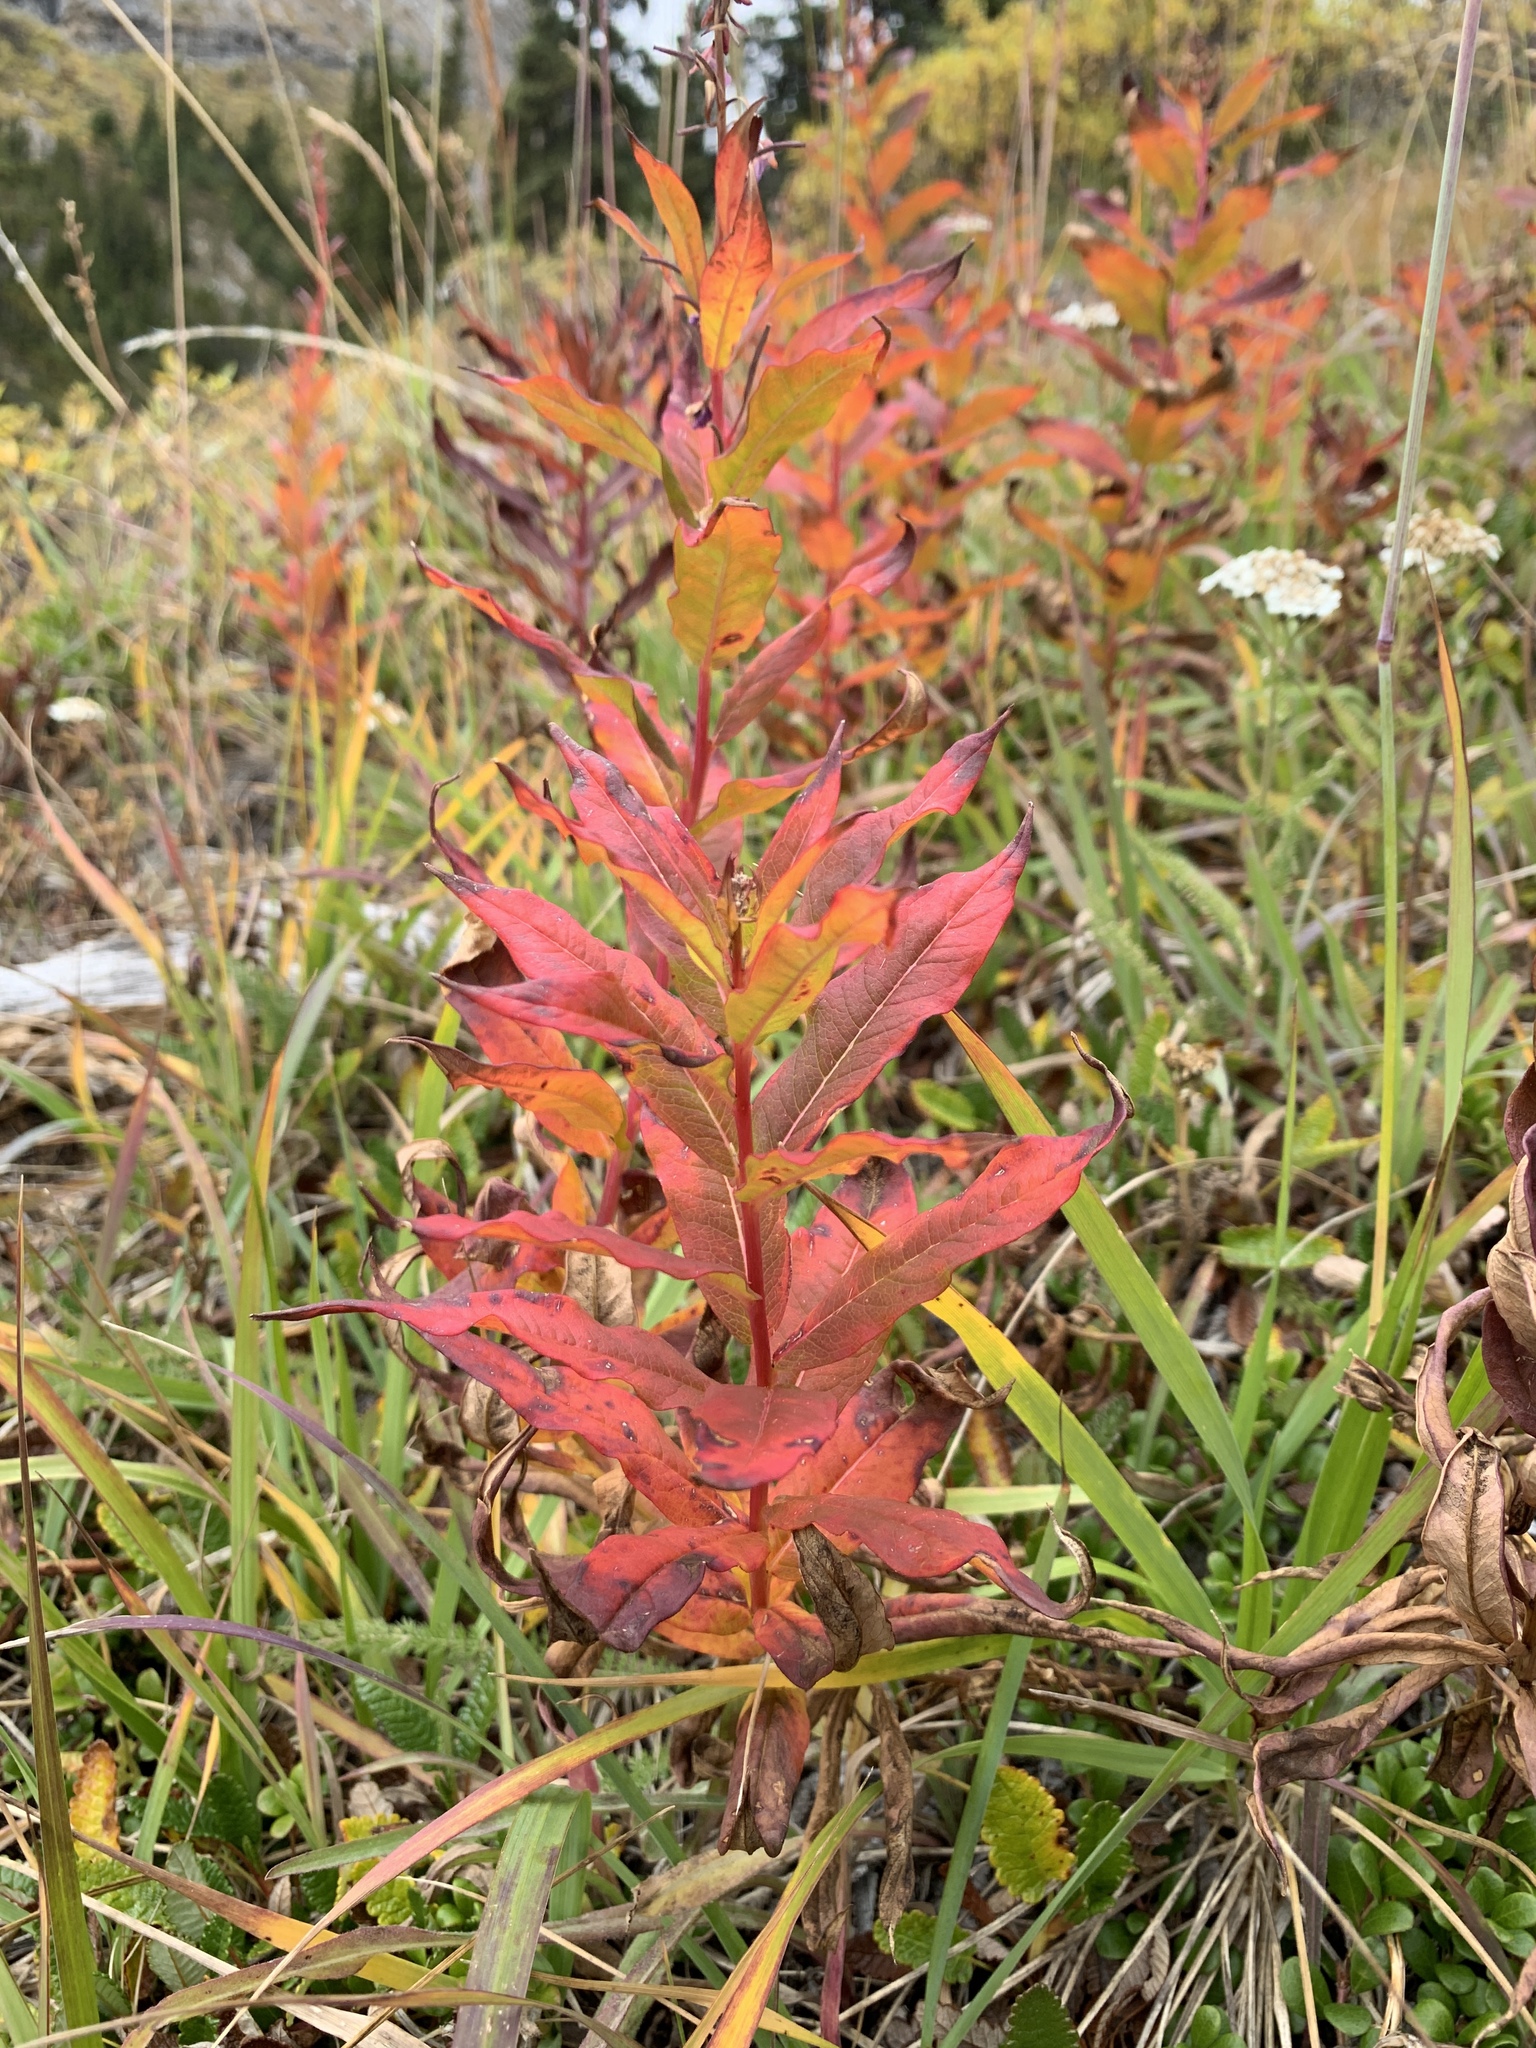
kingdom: Plantae
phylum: Tracheophyta
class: Magnoliopsida
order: Myrtales
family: Onagraceae
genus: Chamaenerion
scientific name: Chamaenerion angustifolium
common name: Fireweed
